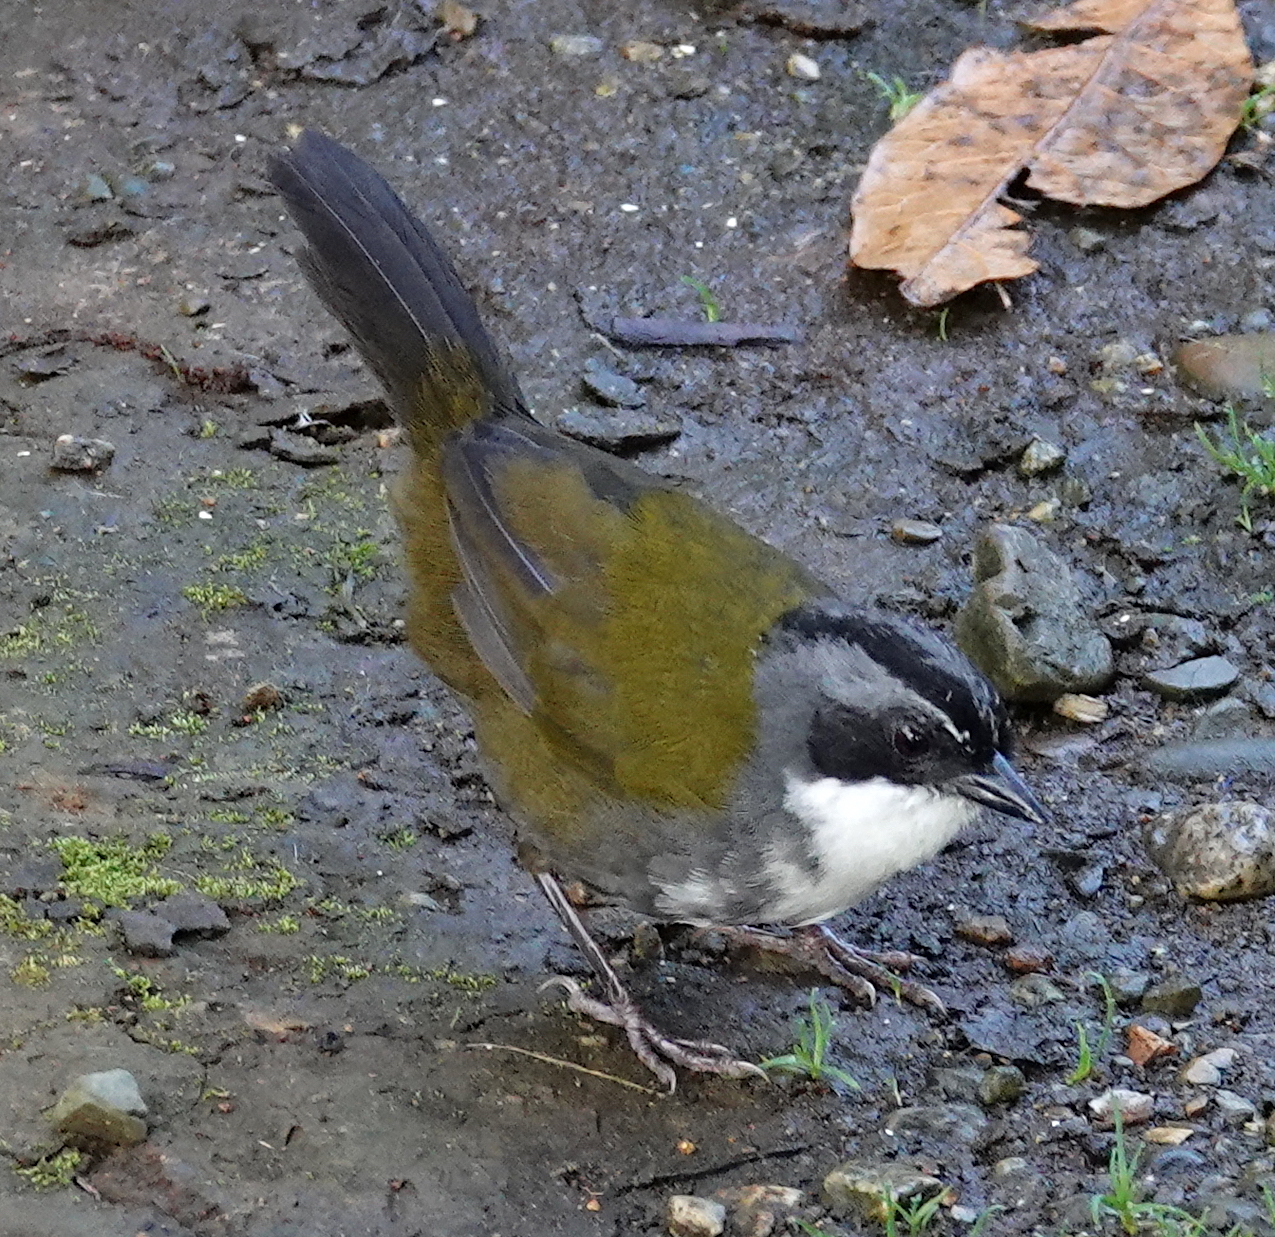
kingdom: Animalia
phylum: Chordata
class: Aves
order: Passeriformes
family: Passerellidae
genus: Arremon
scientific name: Arremon assimilis
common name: Grey-browed brushfinch
